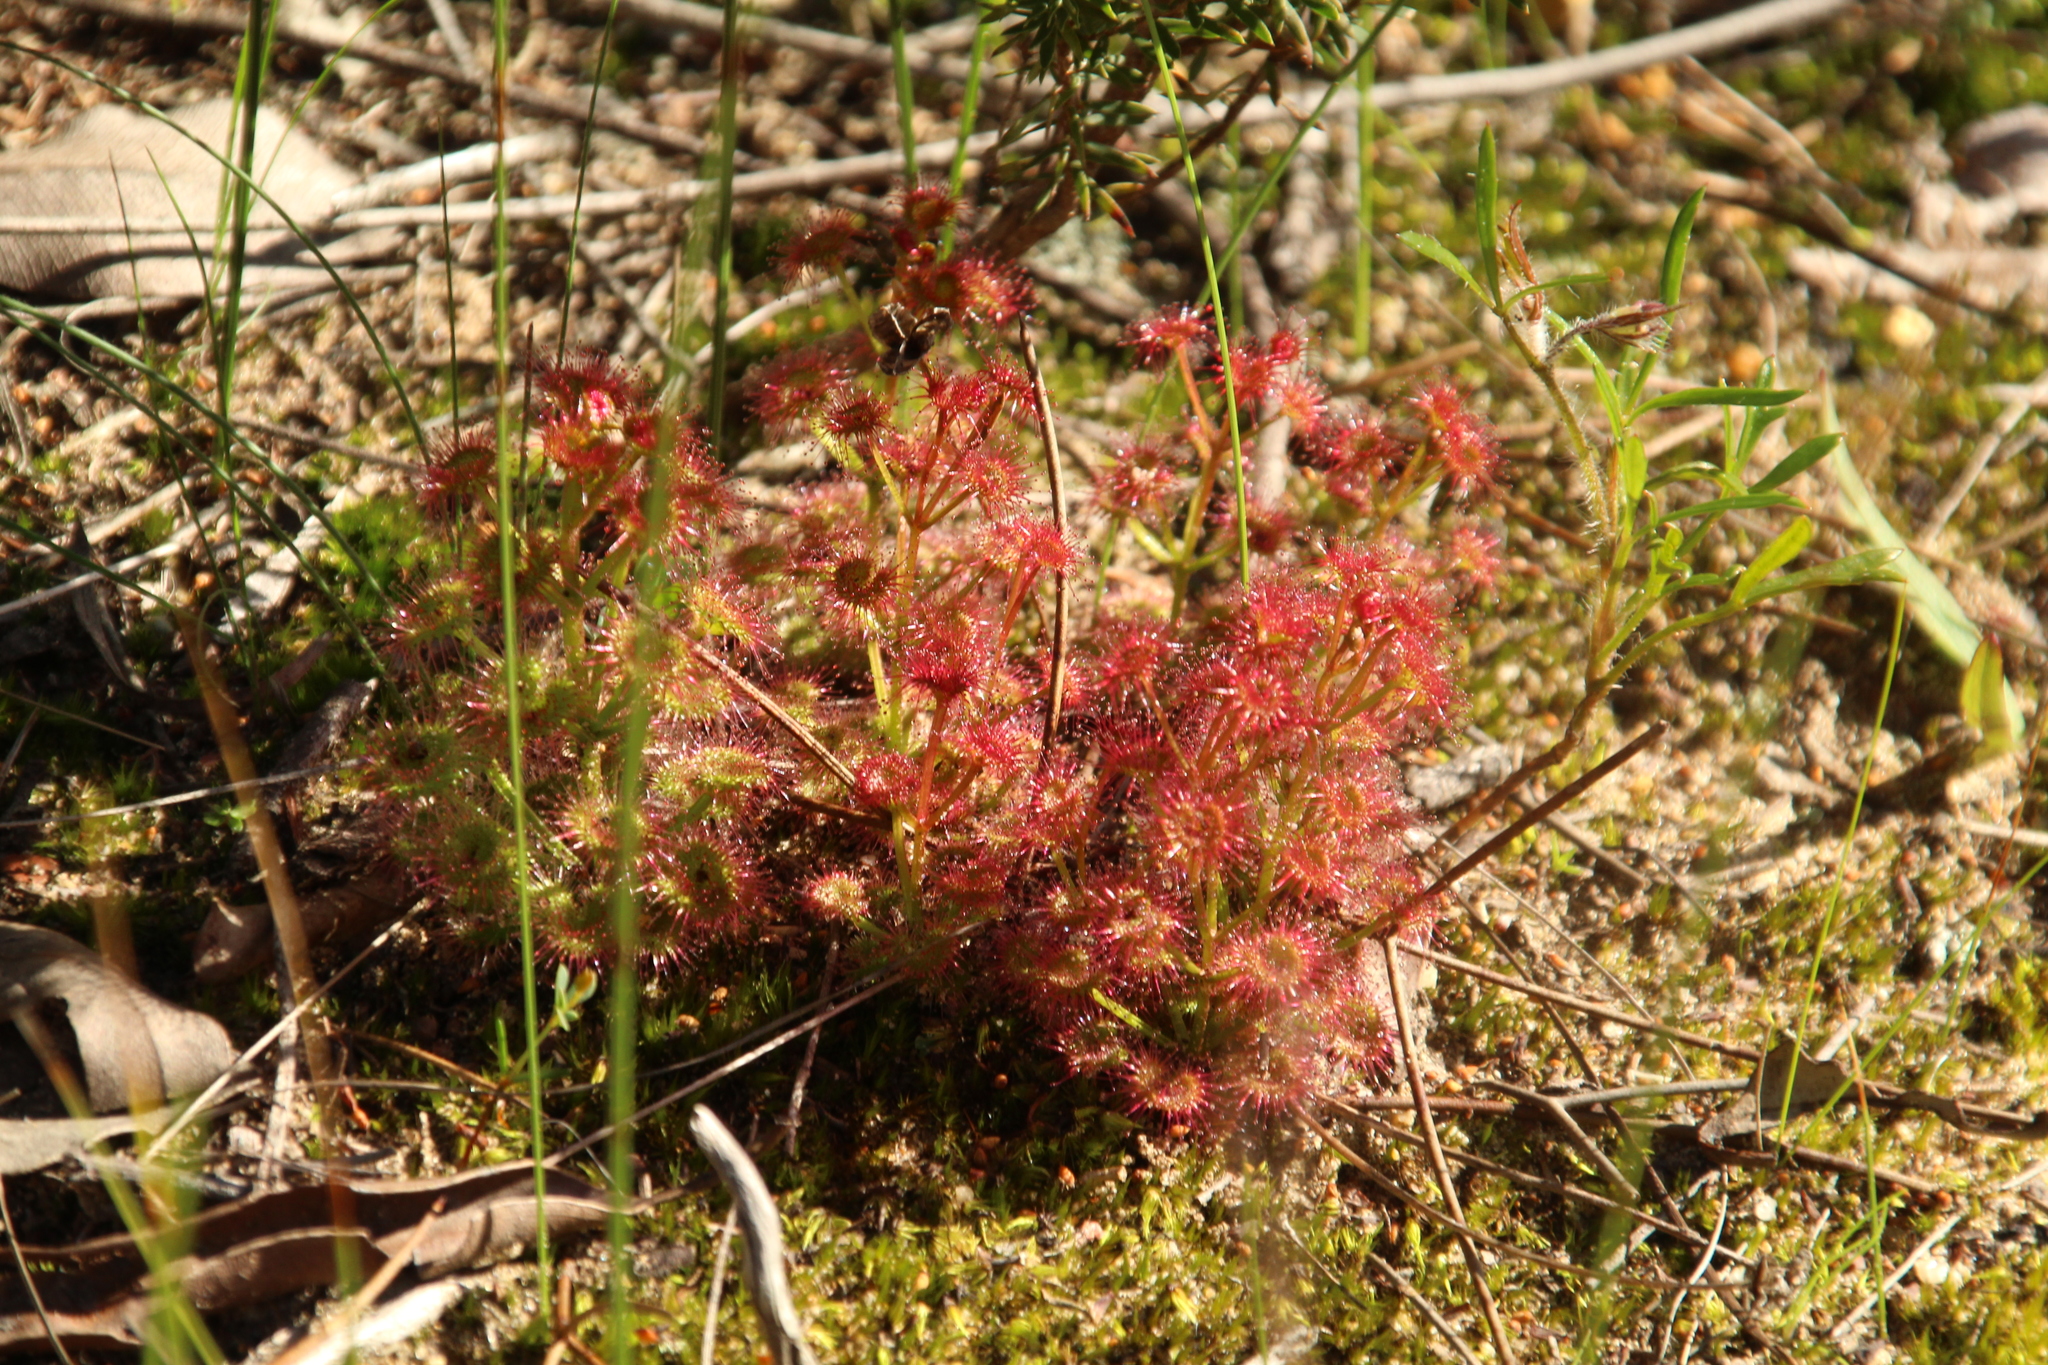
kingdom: Plantae
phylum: Tracheophyta
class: Magnoliopsida
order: Caryophyllales
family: Droseraceae
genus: Drosera
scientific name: Drosera stolonifera
